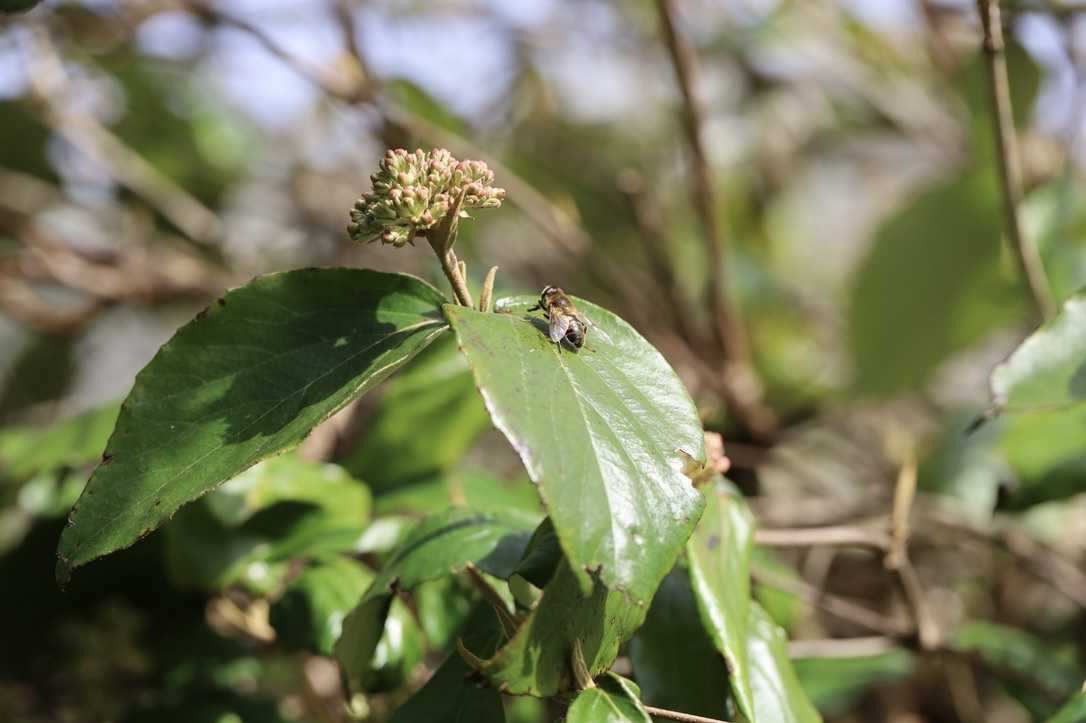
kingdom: Animalia
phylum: Arthropoda
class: Insecta
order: Diptera
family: Syrphidae
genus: Eristalis
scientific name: Eristalis tenax
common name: Drone fly
